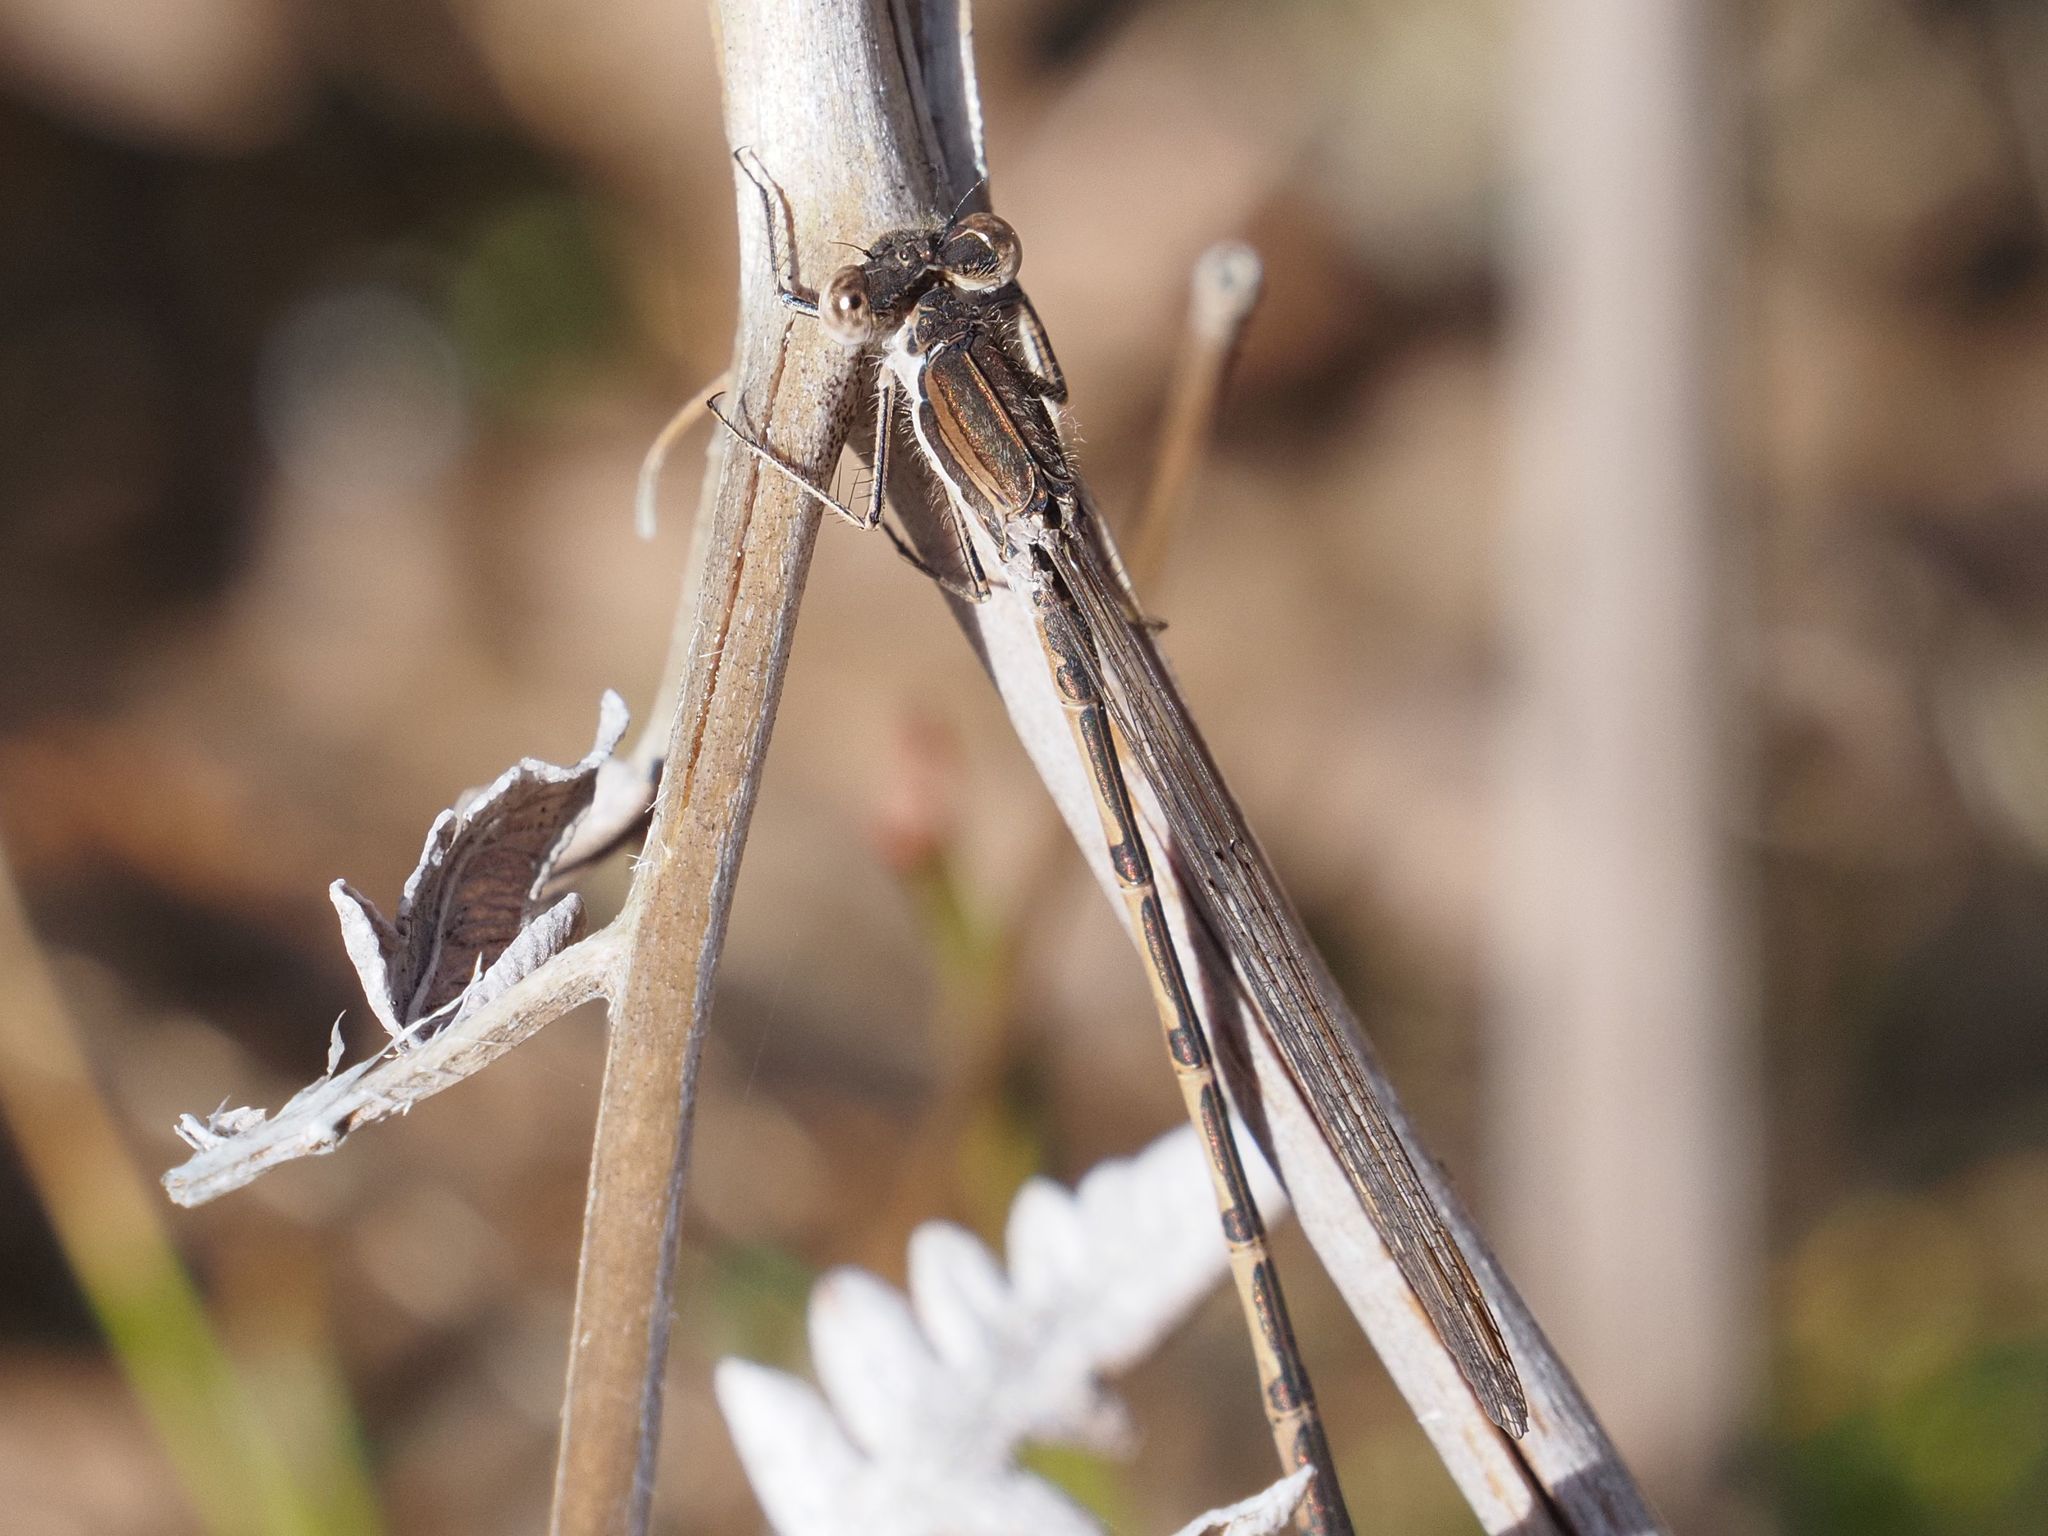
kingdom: Animalia
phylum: Arthropoda
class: Insecta
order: Odonata
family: Lestidae
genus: Sympecma
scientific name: Sympecma fusca
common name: Common winter damsel
